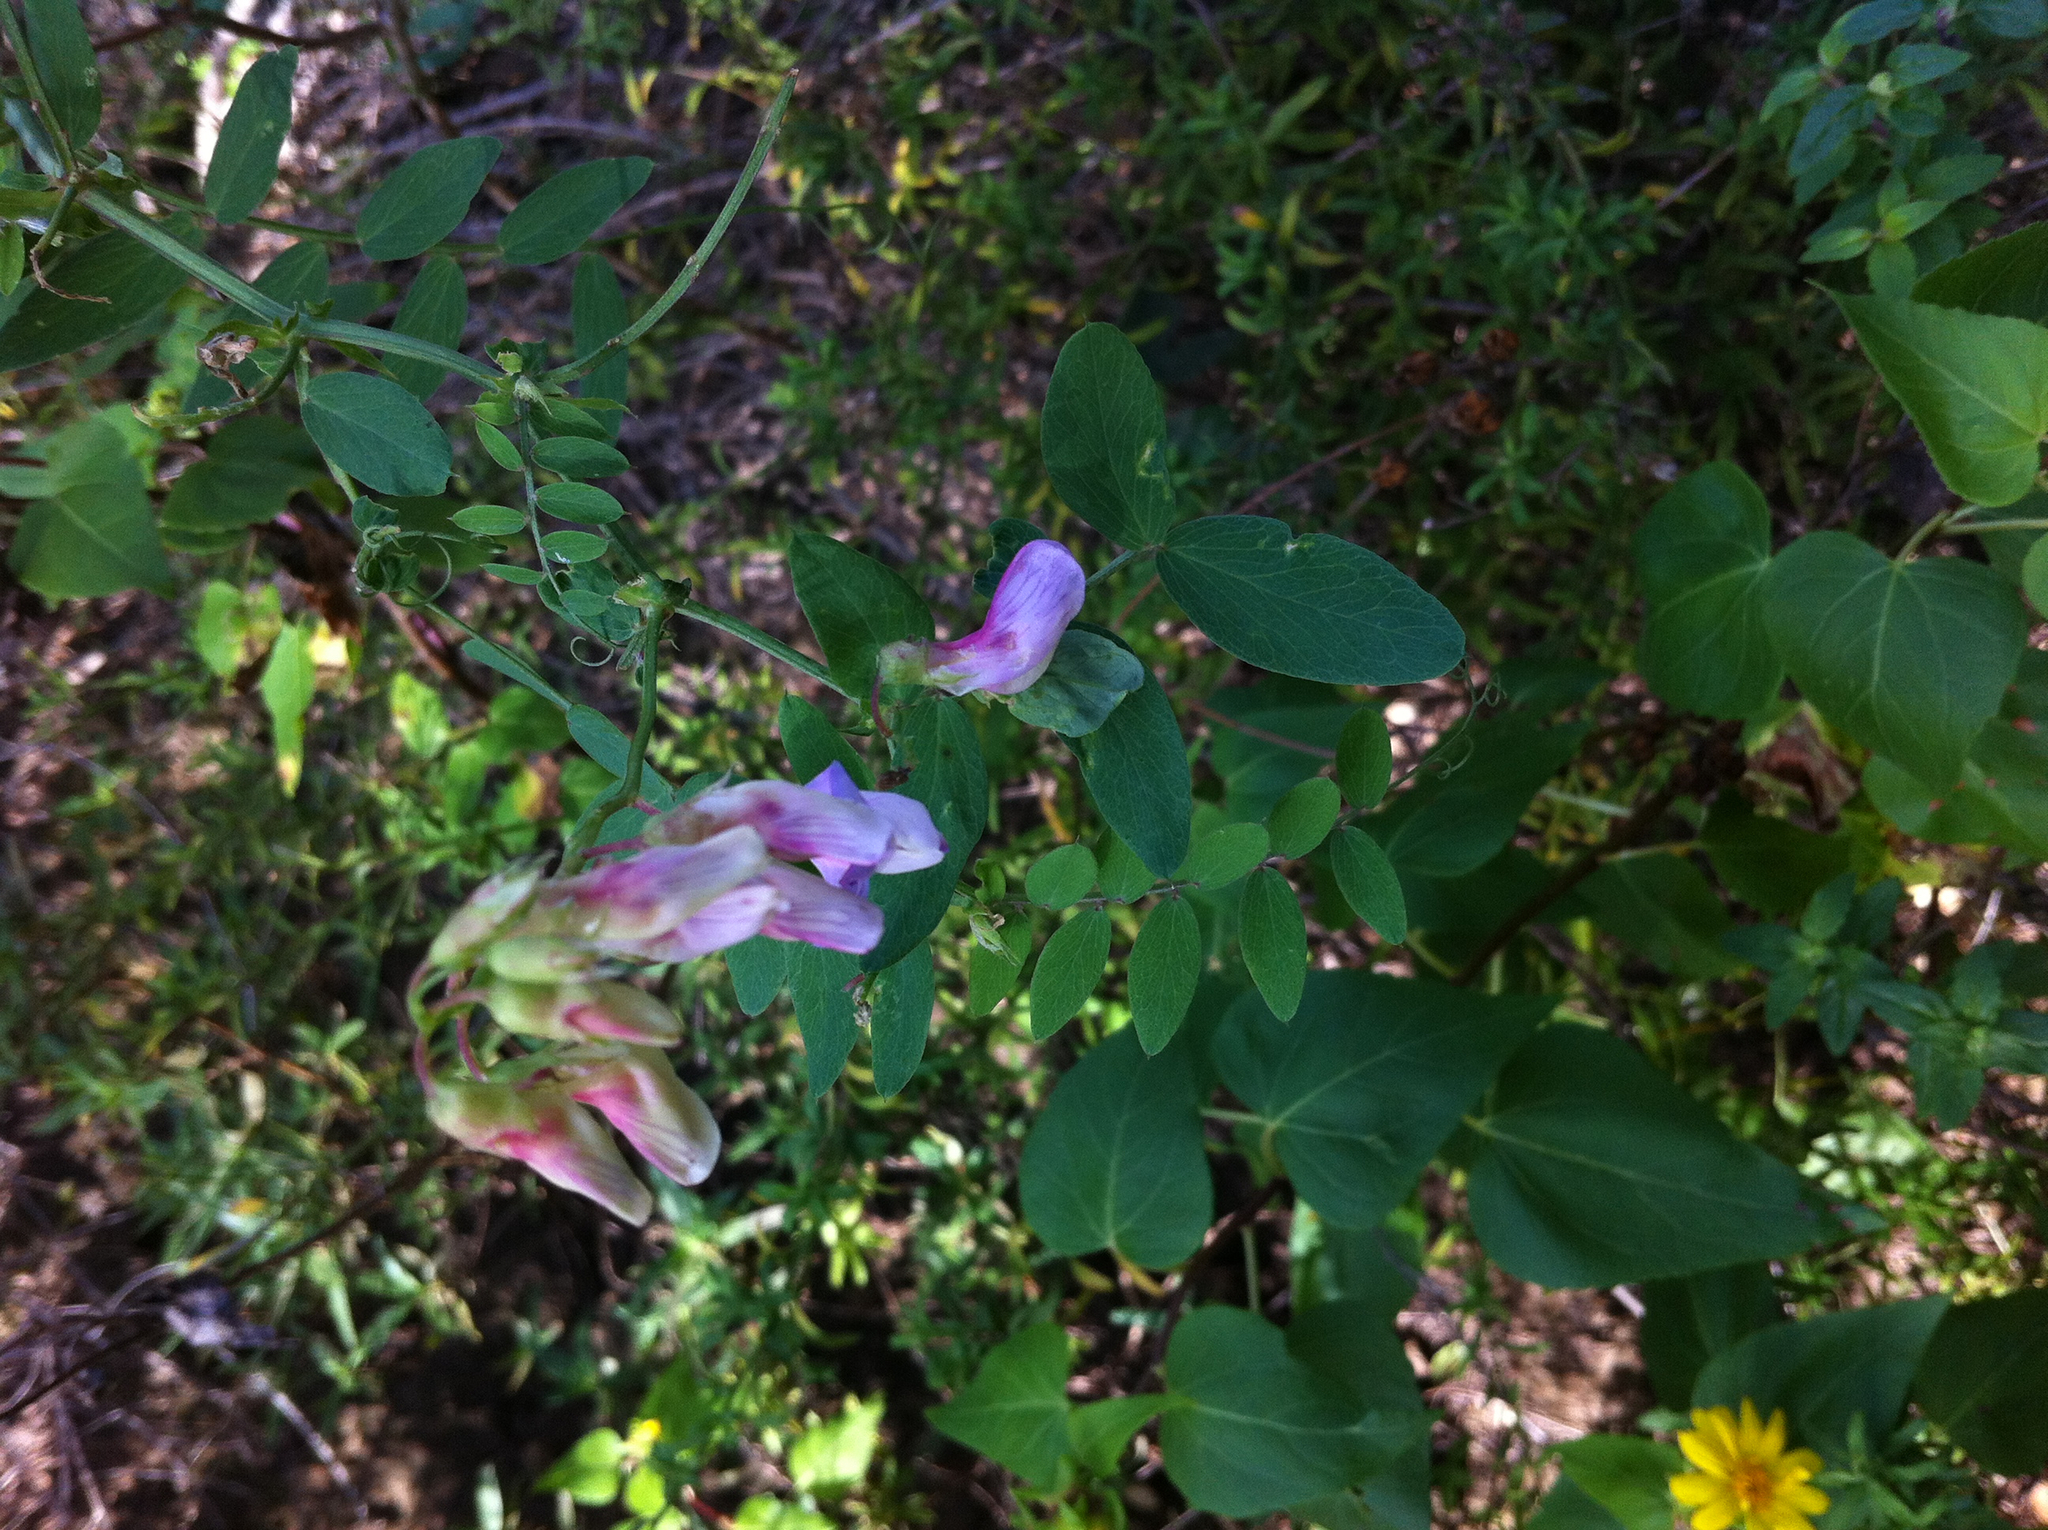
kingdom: Plantae
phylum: Tracheophyta
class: Magnoliopsida
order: Fabales
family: Fabaceae
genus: Lathyrus
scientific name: Lathyrus vestitus
